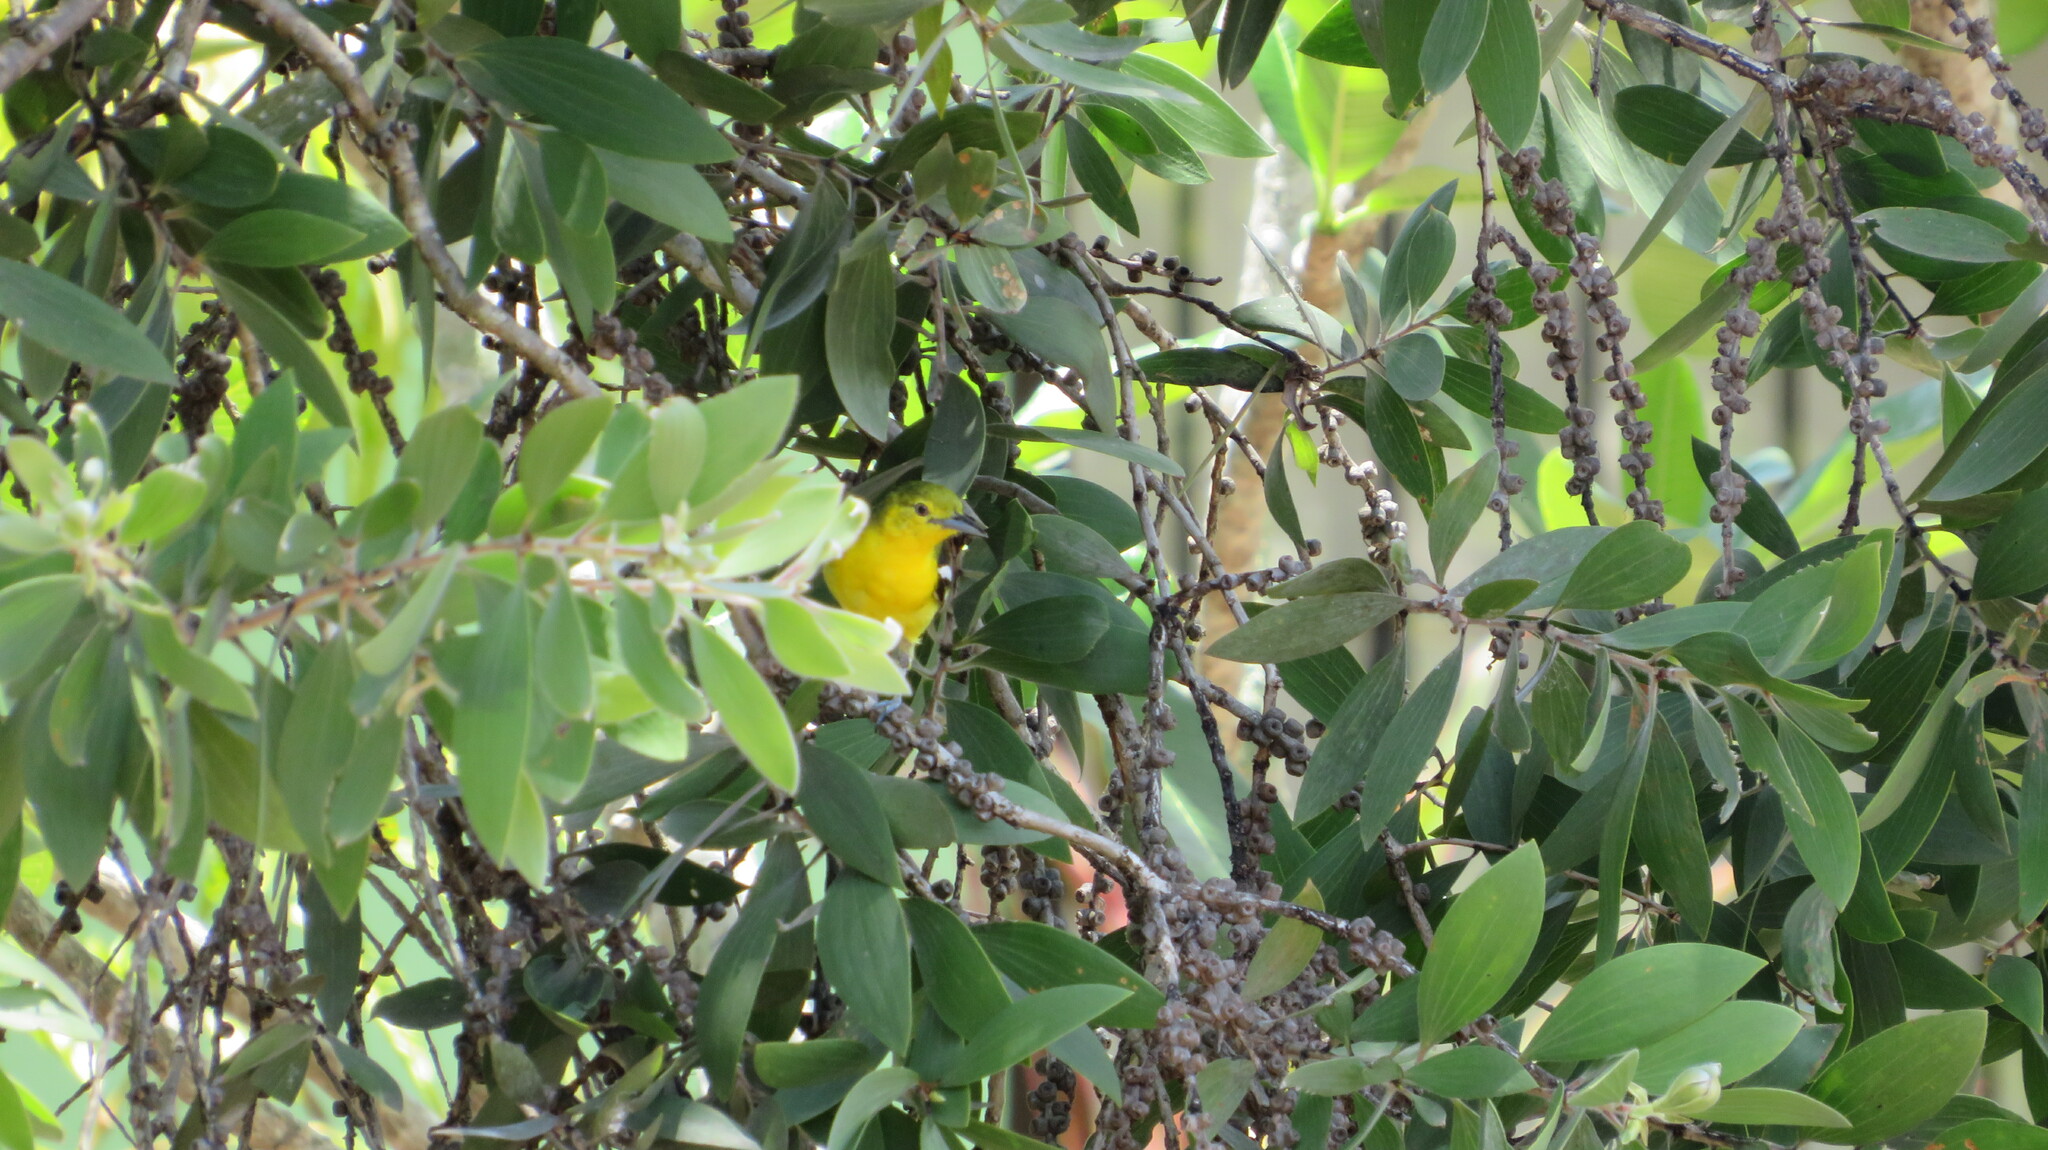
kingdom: Animalia
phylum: Chordata
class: Aves
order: Passeriformes
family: Aegithinidae
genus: Aegithina
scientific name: Aegithina tiphia
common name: Common iora
